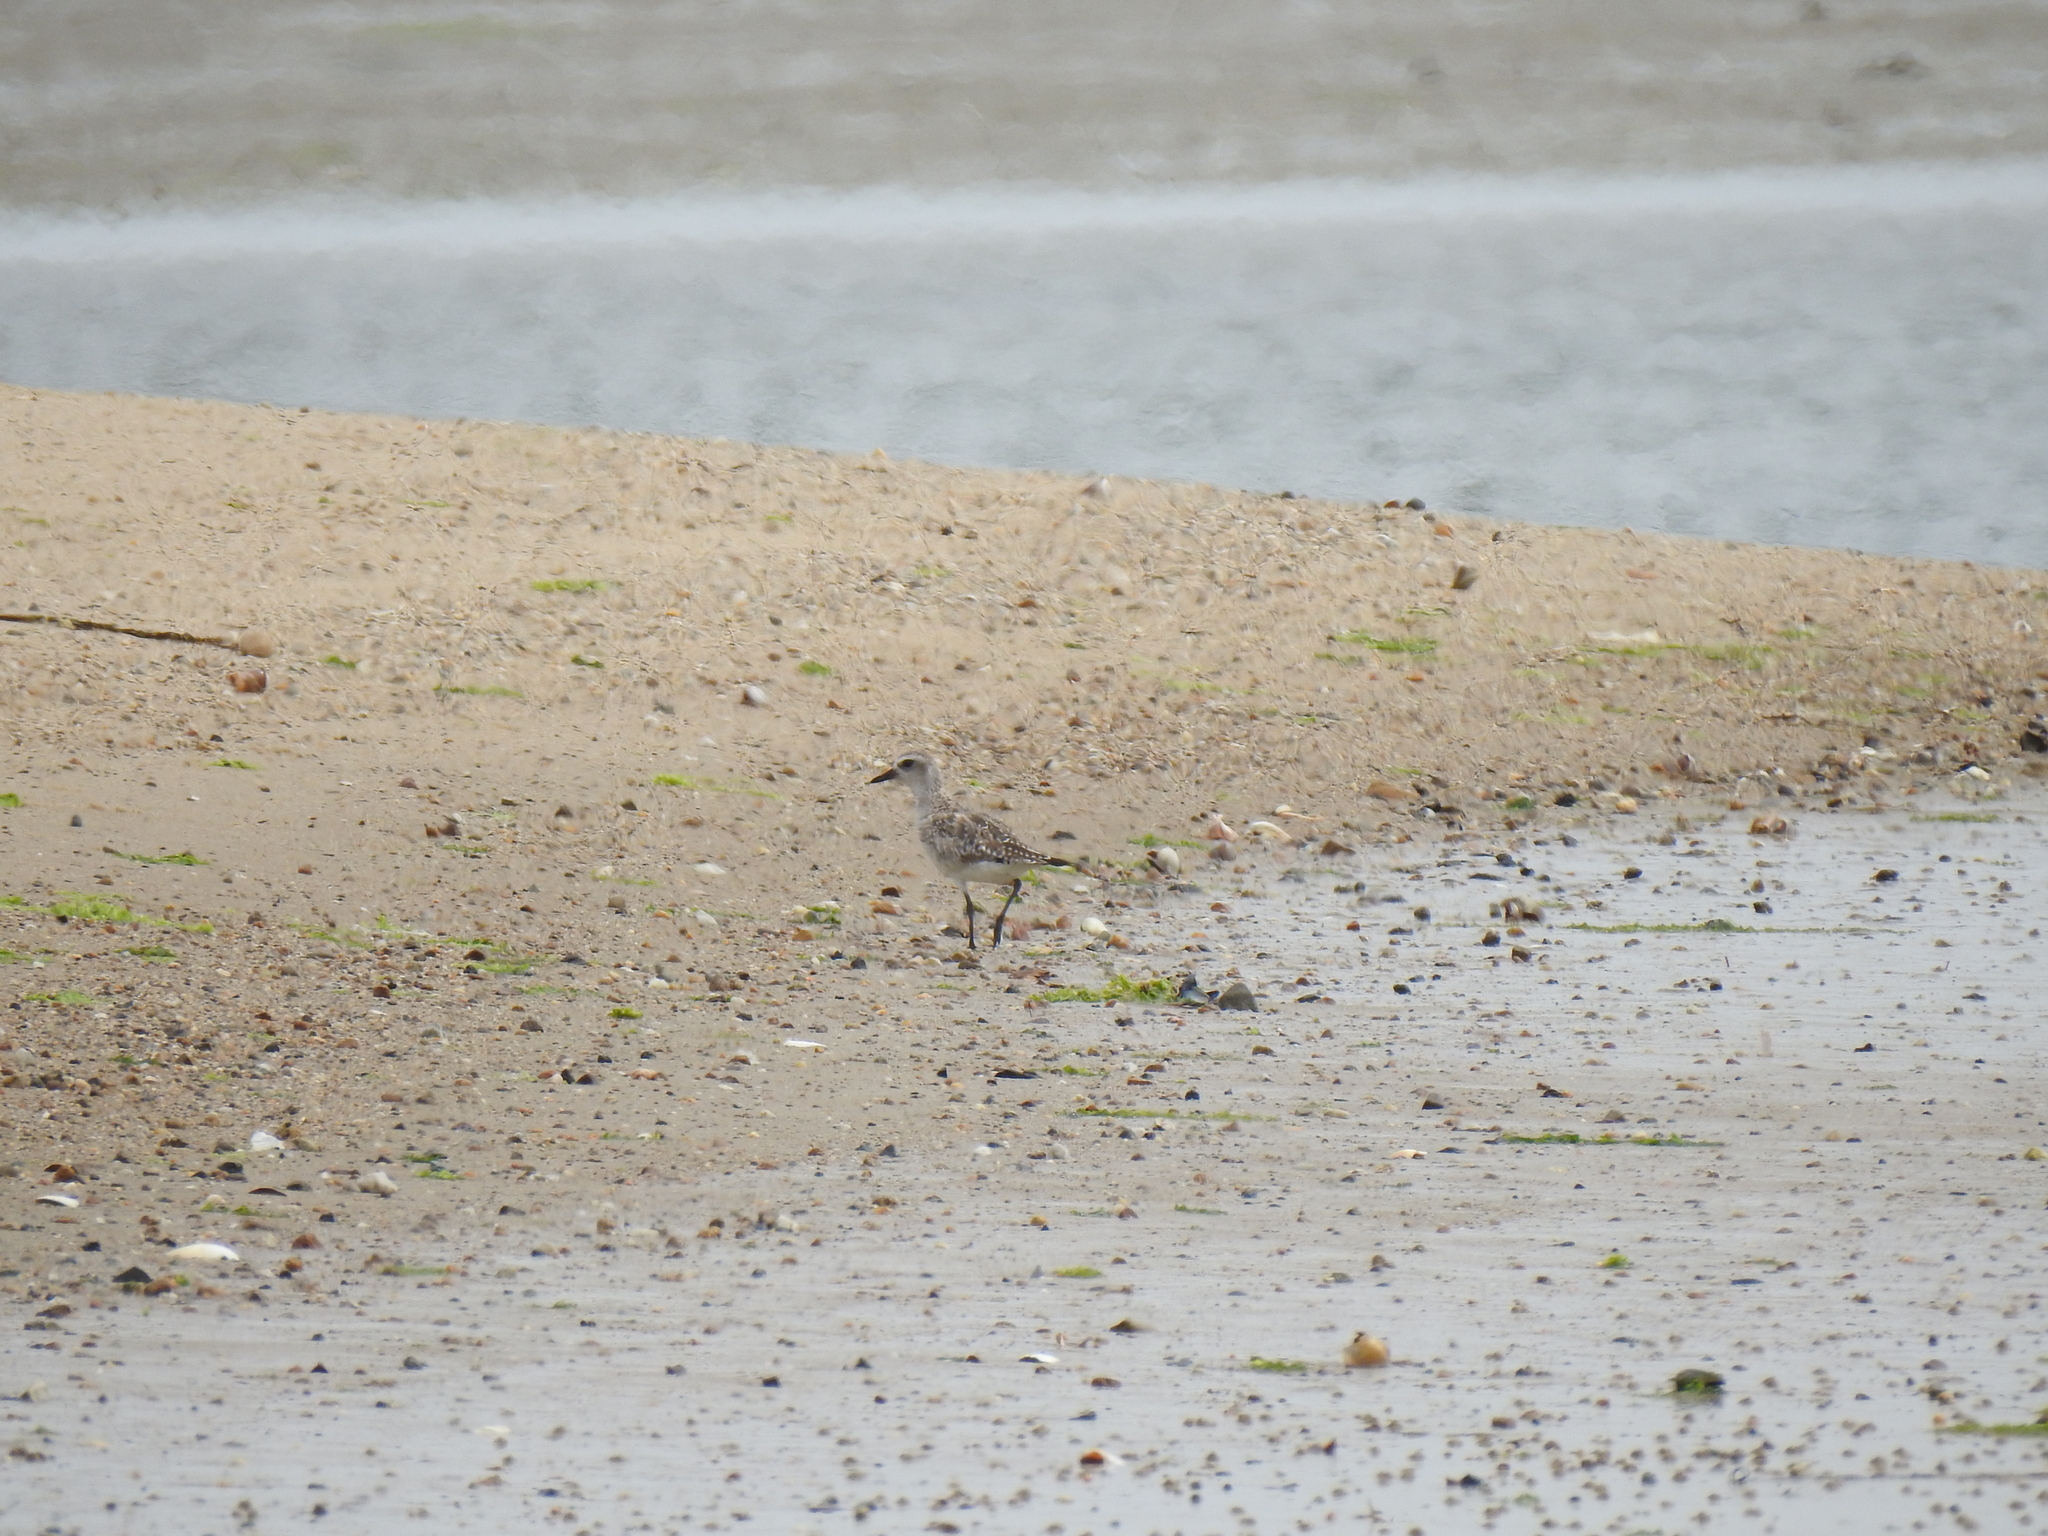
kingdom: Animalia
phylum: Chordata
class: Aves
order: Charadriiformes
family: Charadriidae
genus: Pluvialis
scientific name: Pluvialis squatarola
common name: Grey plover
